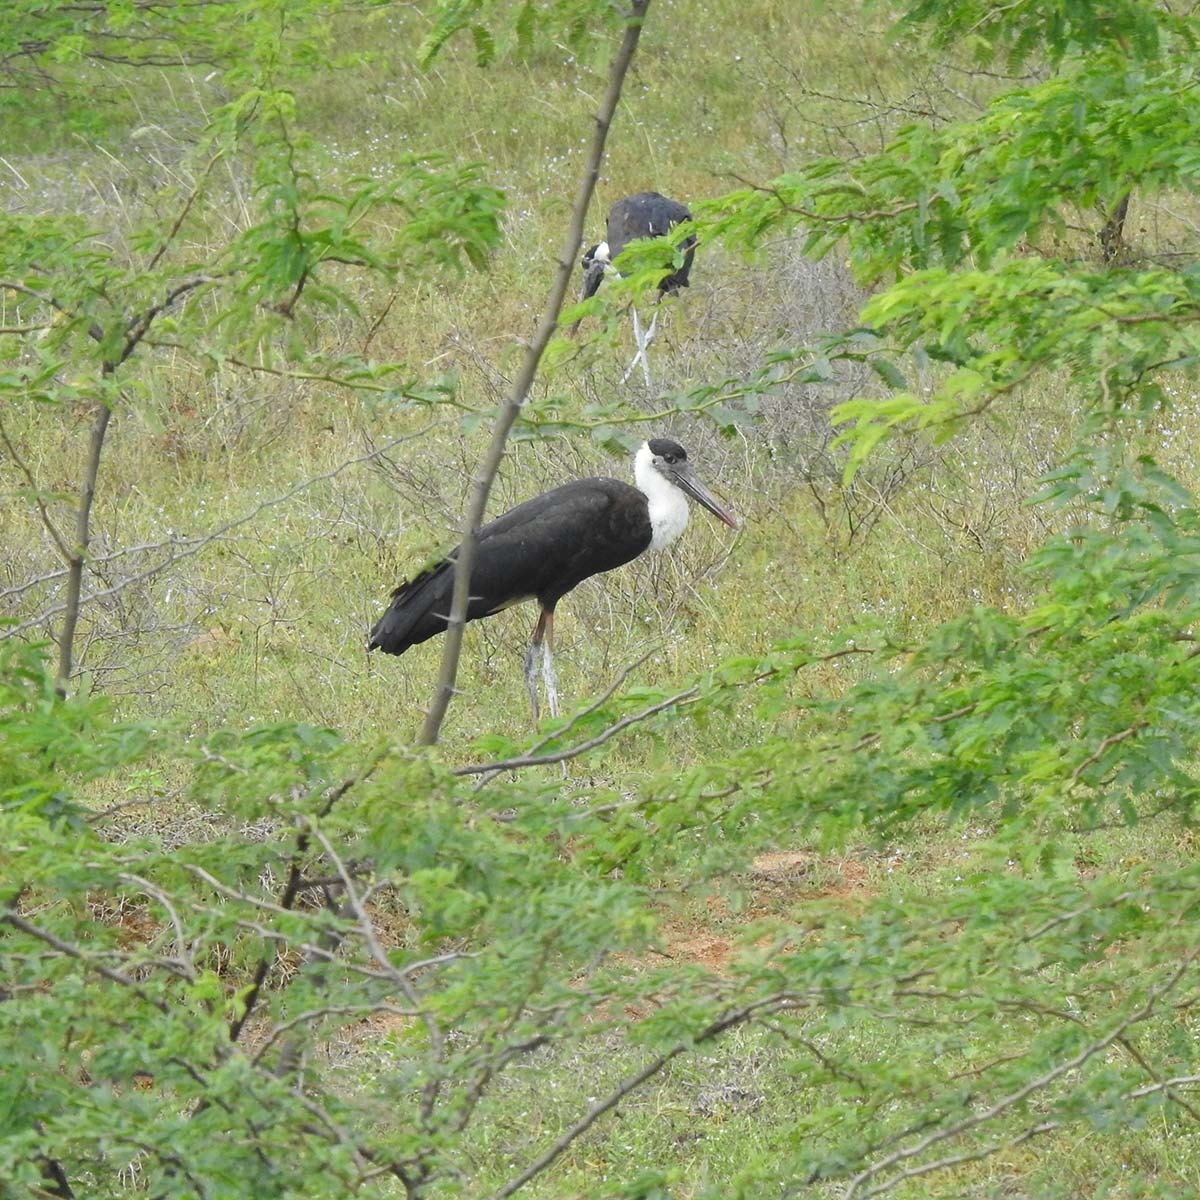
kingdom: Animalia
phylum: Chordata
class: Aves
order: Ciconiiformes
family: Ciconiidae
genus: Ciconia
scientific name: Ciconia episcopus
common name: Woolly-necked stork
